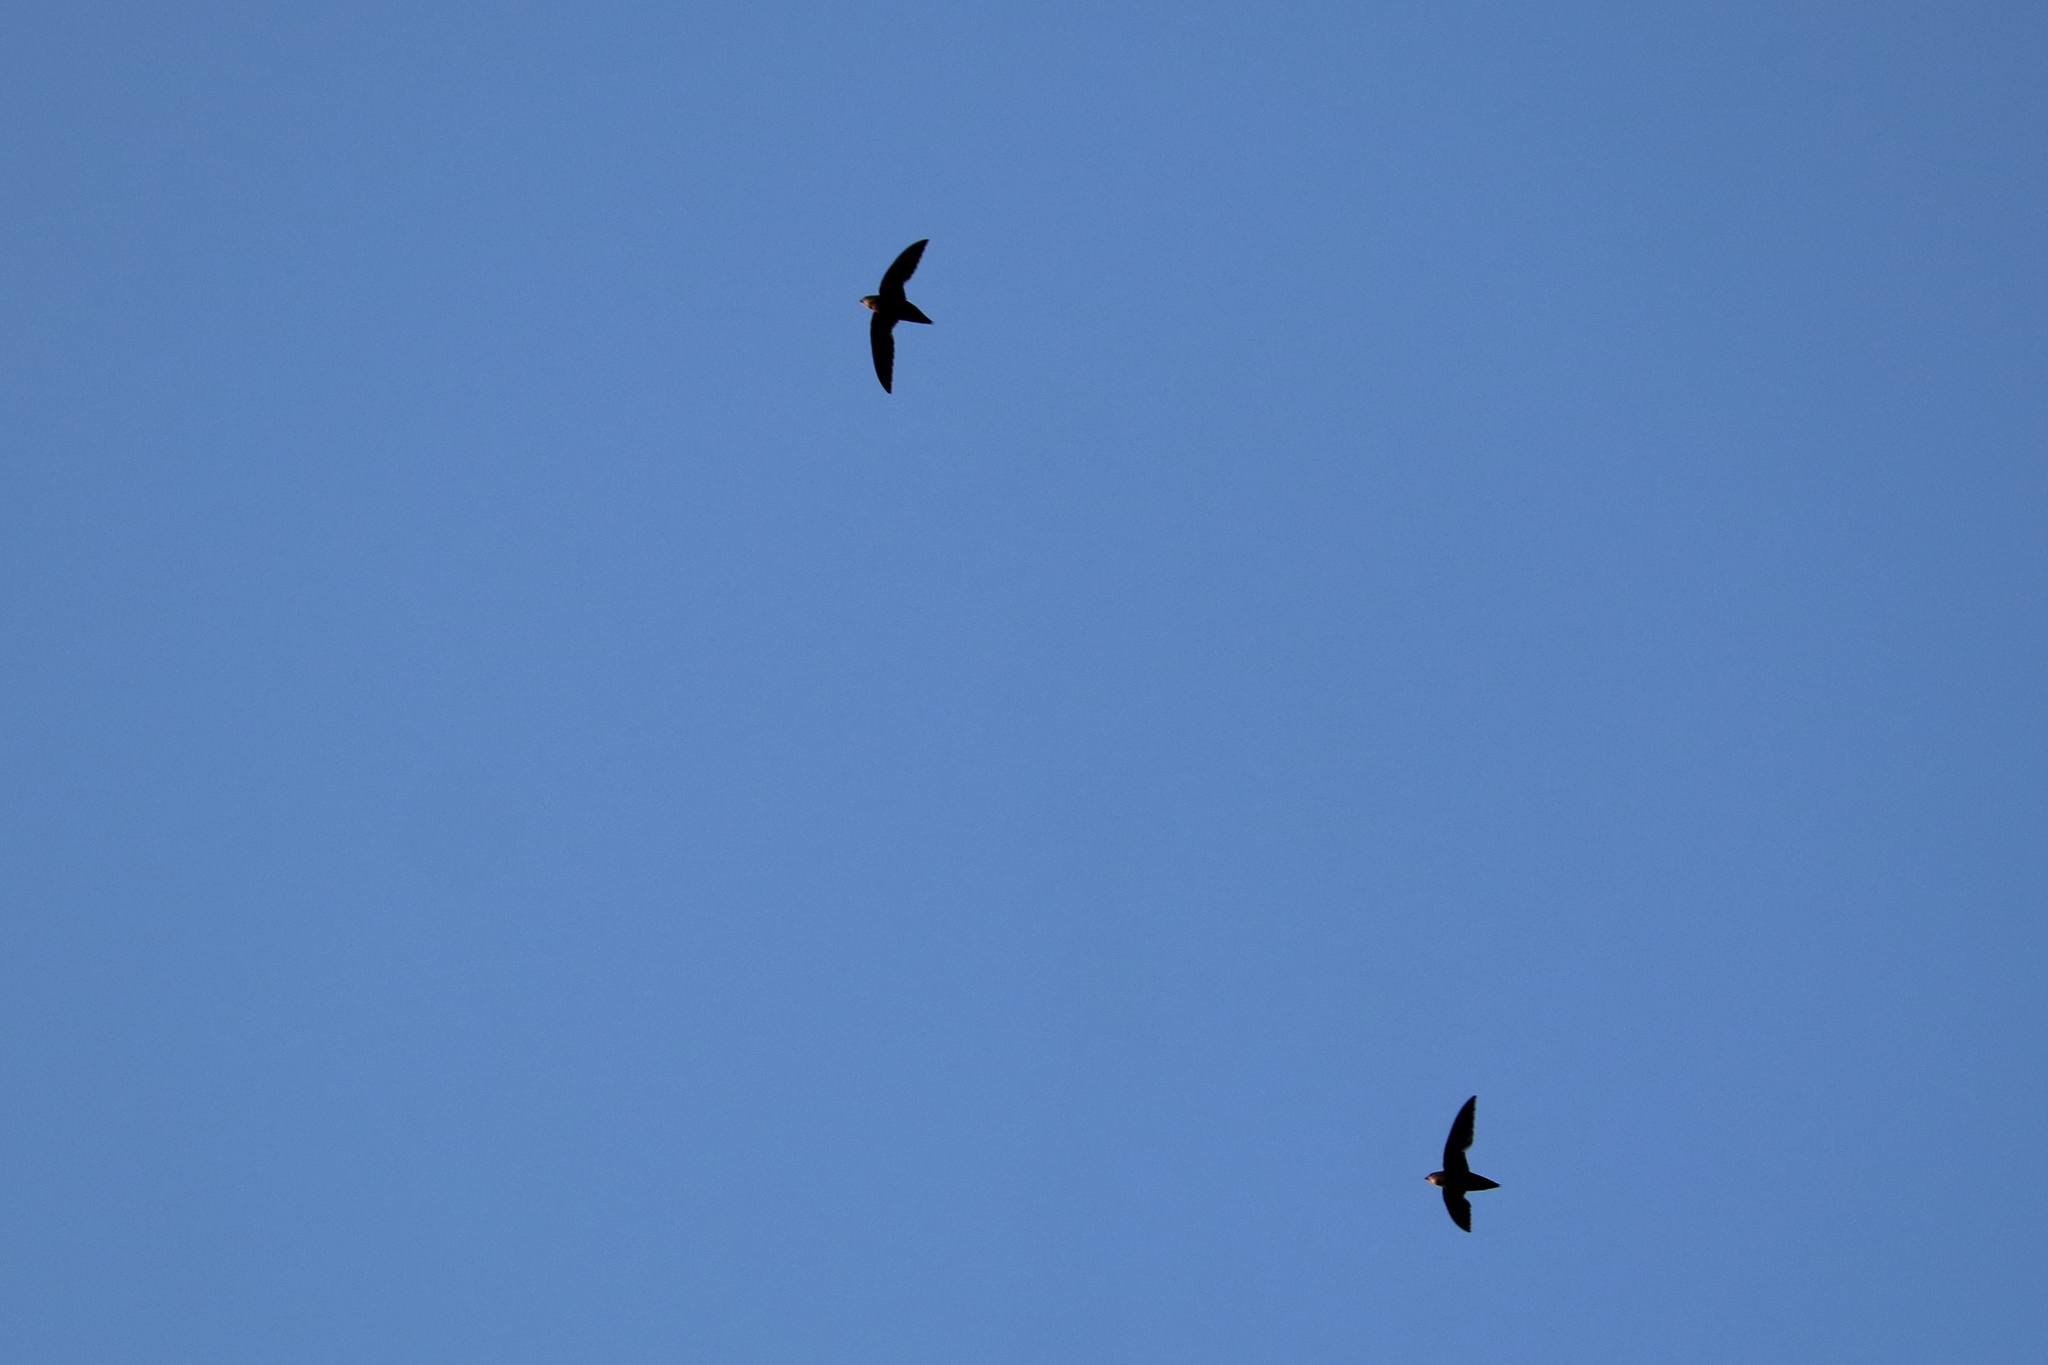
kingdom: Animalia
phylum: Chordata
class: Aves
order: Apodiformes
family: Apodidae
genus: Chaetura
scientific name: Chaetura pelagica
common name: Chimney swift
